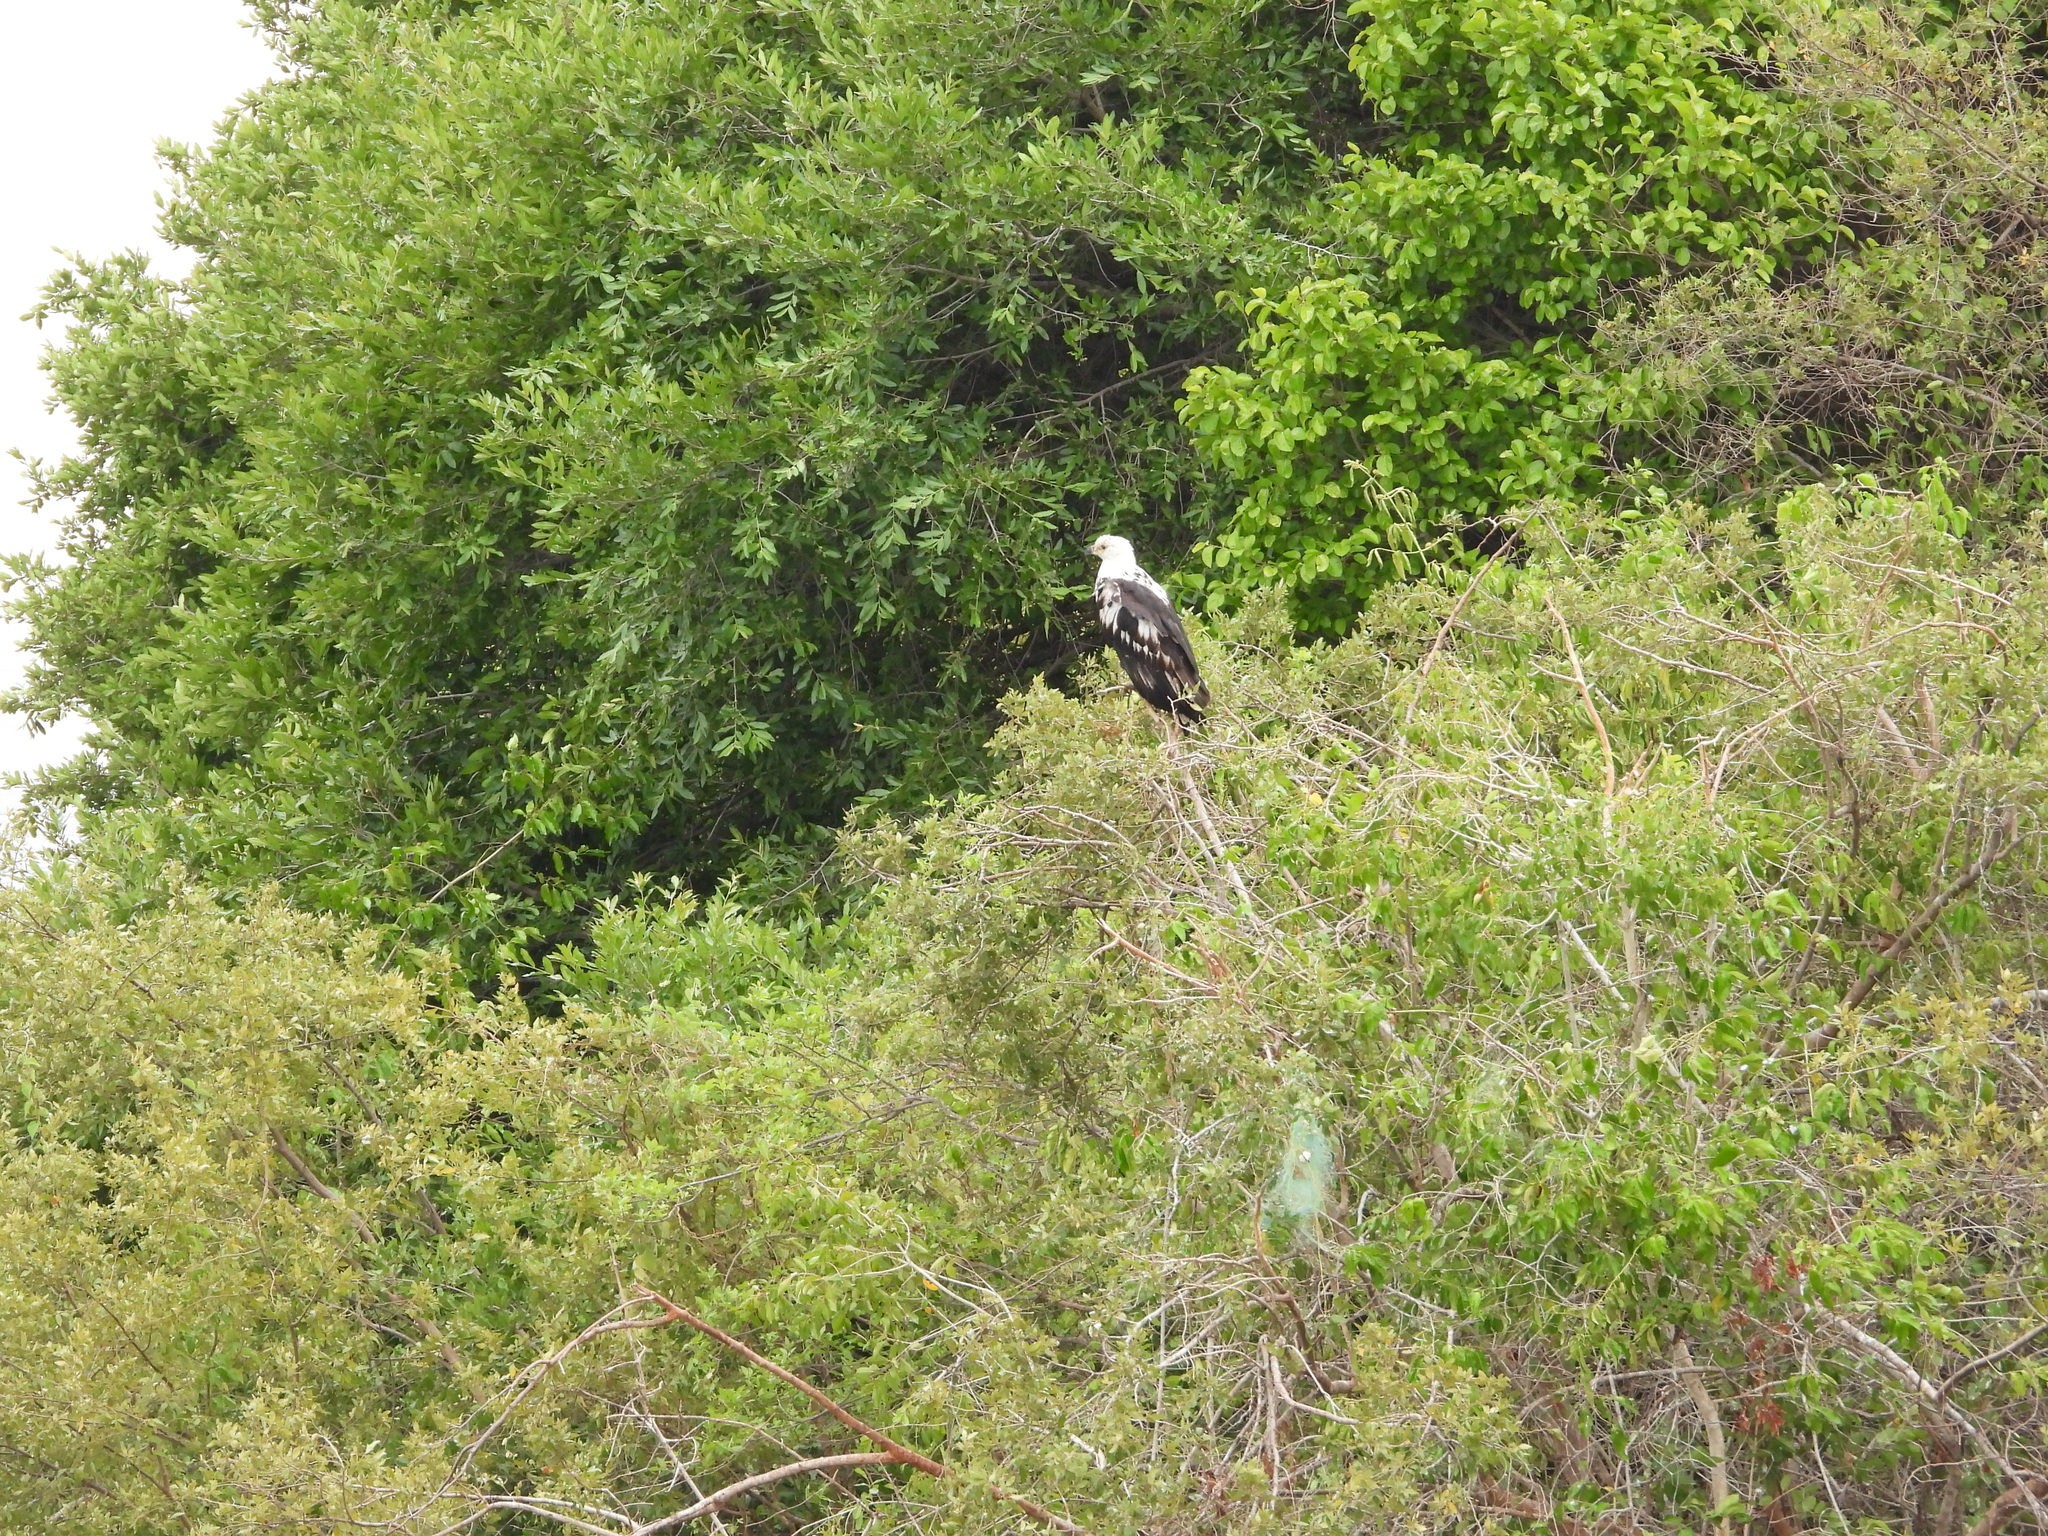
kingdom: Animalia
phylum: Chordata
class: Aves
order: Accipitriformes
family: Accipitridae
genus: Haliaeetus
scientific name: Haliaeetus vocifer
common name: African fish eagle
